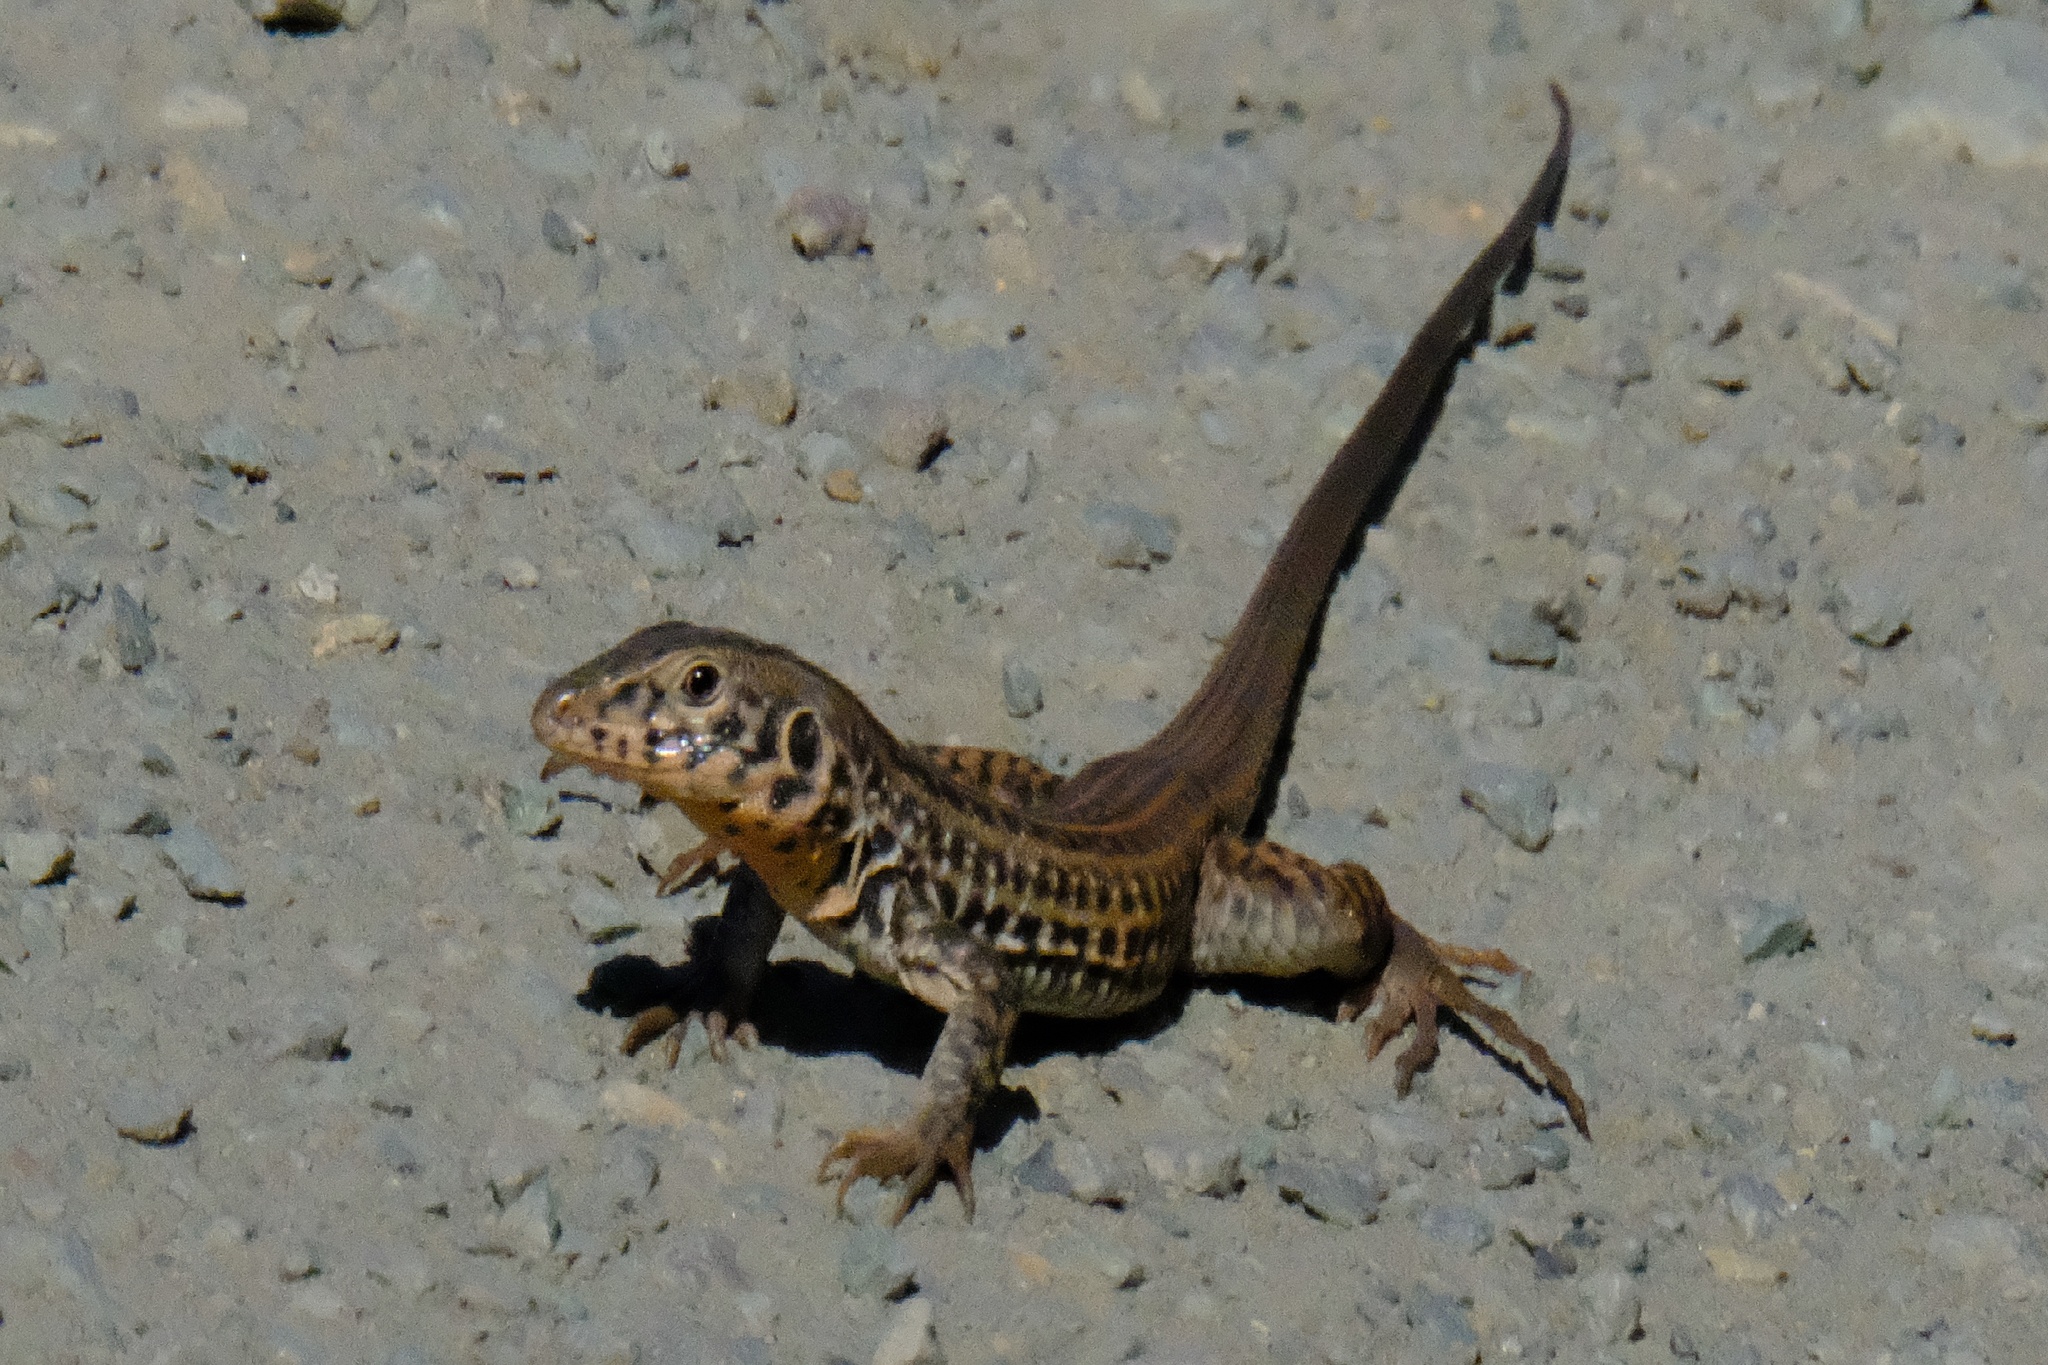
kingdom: Animalia
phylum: Chordata
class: Squamata
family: Teiidae
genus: Aspidoscelis
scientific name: Aspidoscelis tigris
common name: Tiger whiptail
